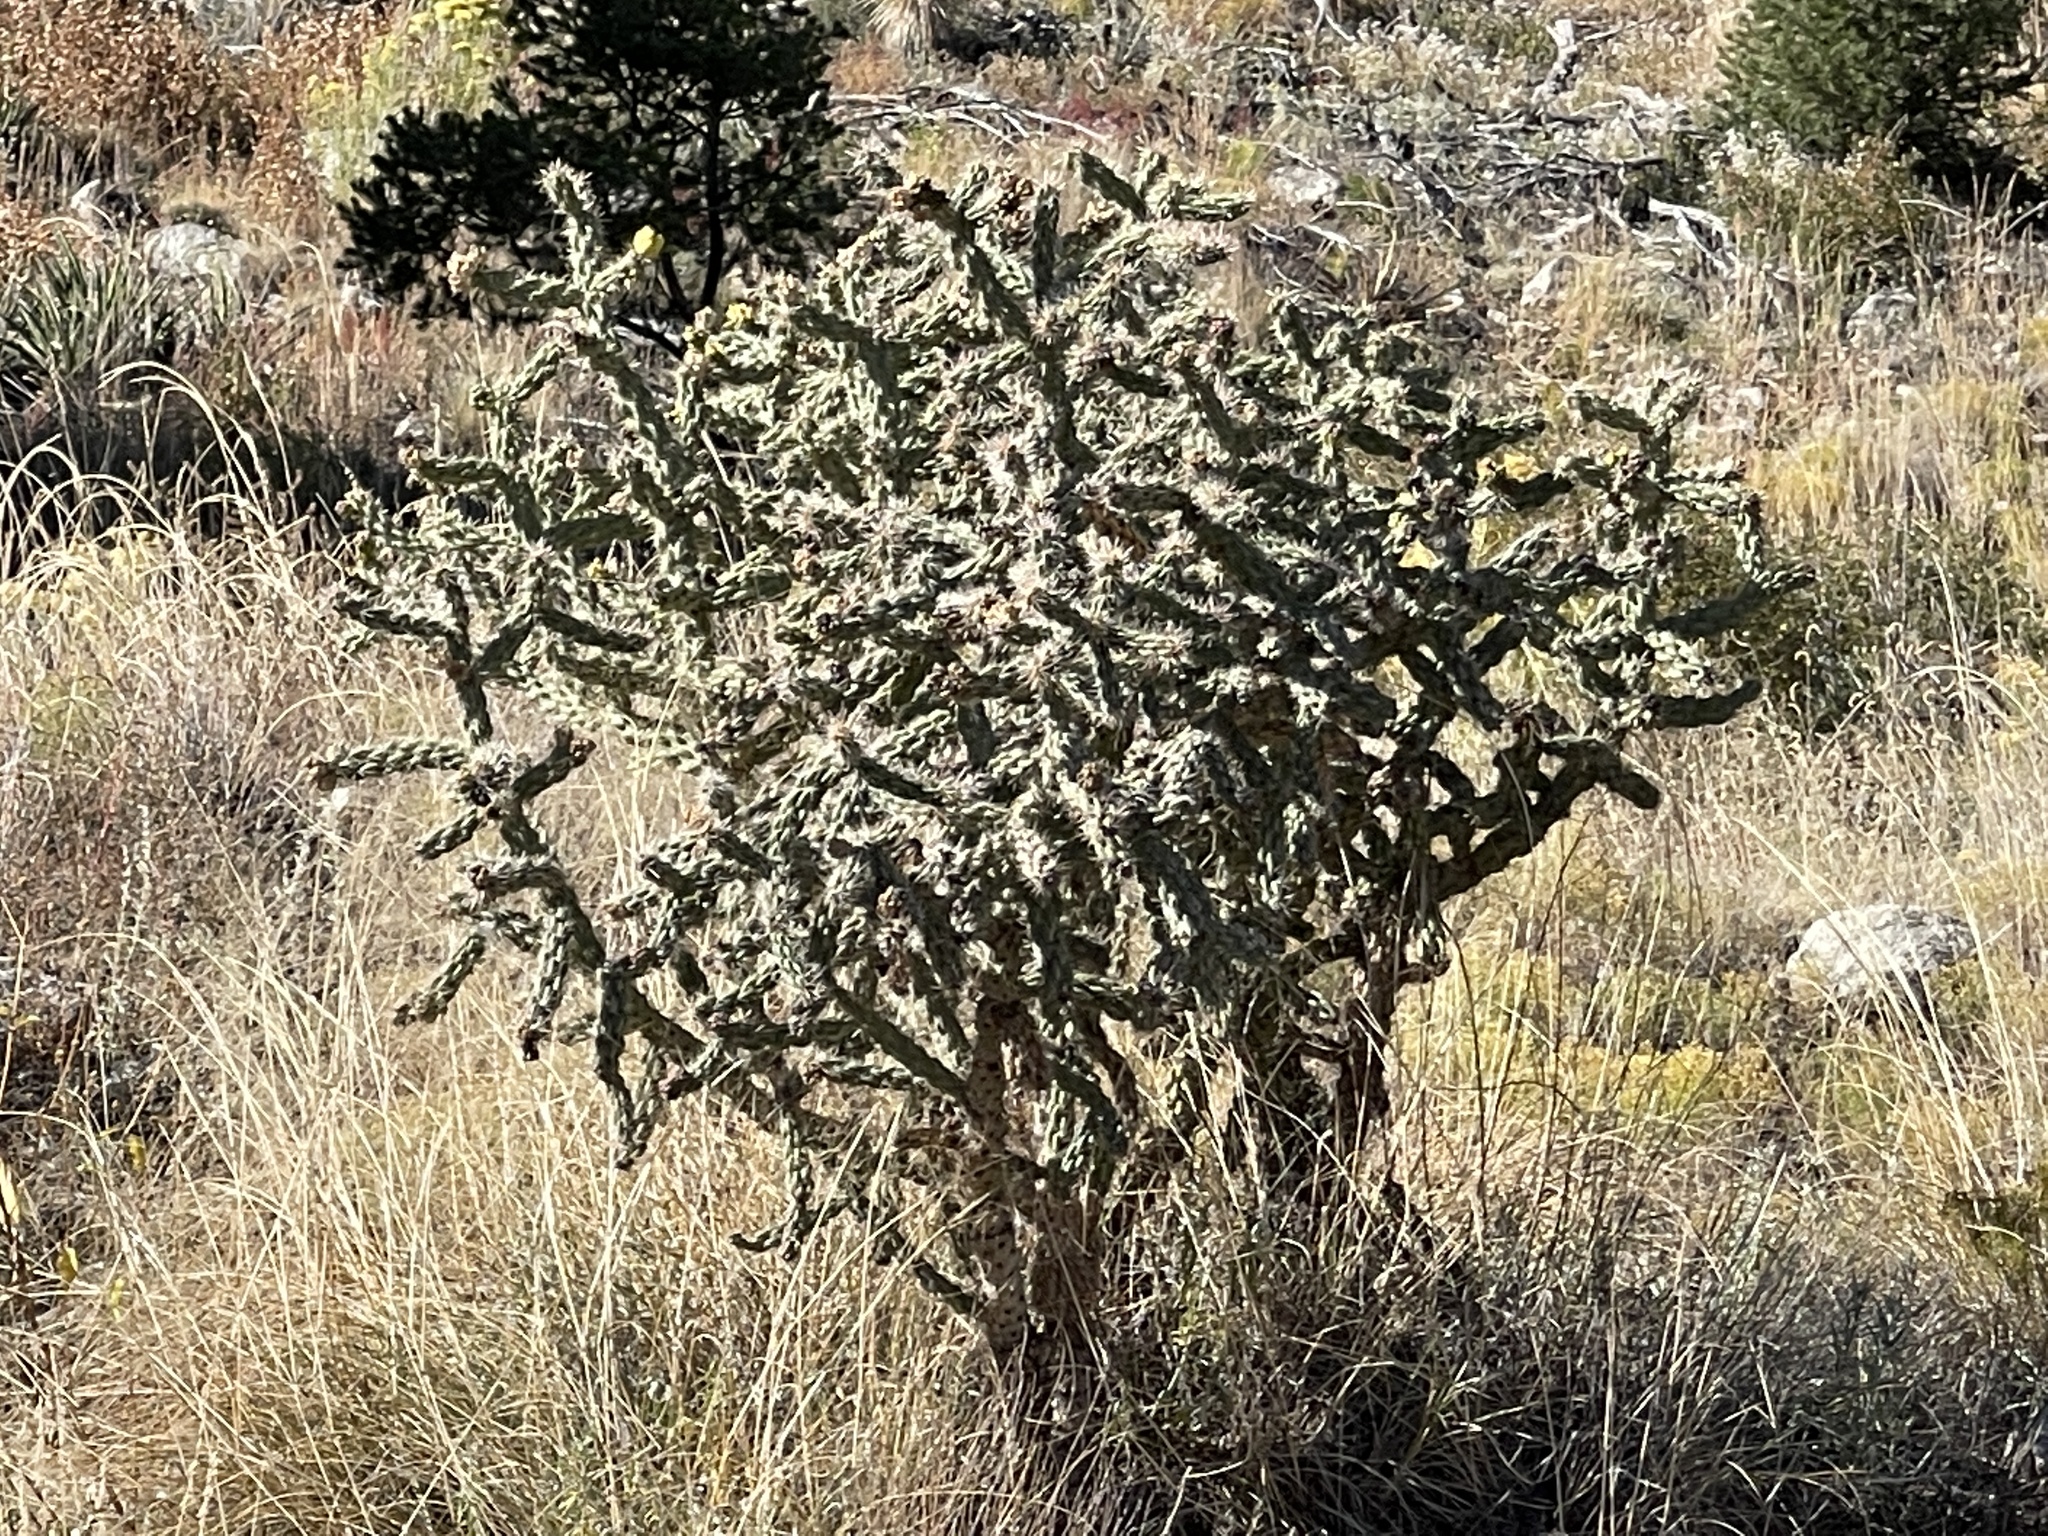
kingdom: Plantae
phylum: Tracheophyta
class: Magnoliopsida
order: Caryophyllales
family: Cactaceae
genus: Cylindropuntia
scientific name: Cylindropuntia imbricata
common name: Candelabrum cactus
